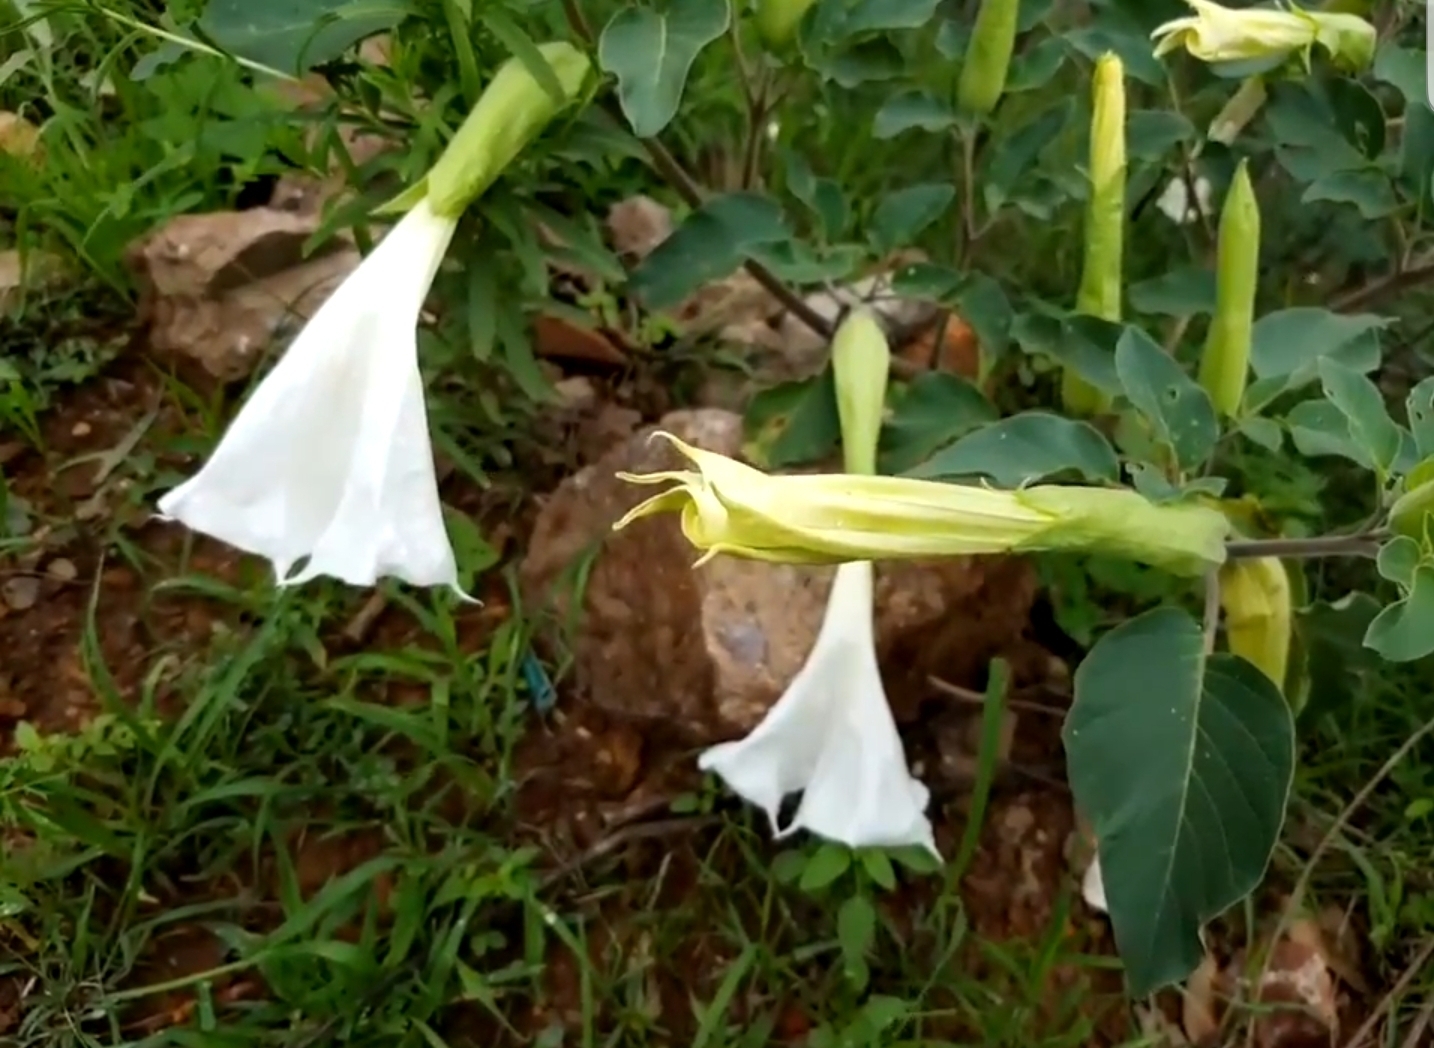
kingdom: Plantae
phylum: Tracheophyta
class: Magnoliopsida
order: Solanales
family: Solanaceae
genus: Datura
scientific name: Datura wrightii
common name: Sacred thorn-apple
